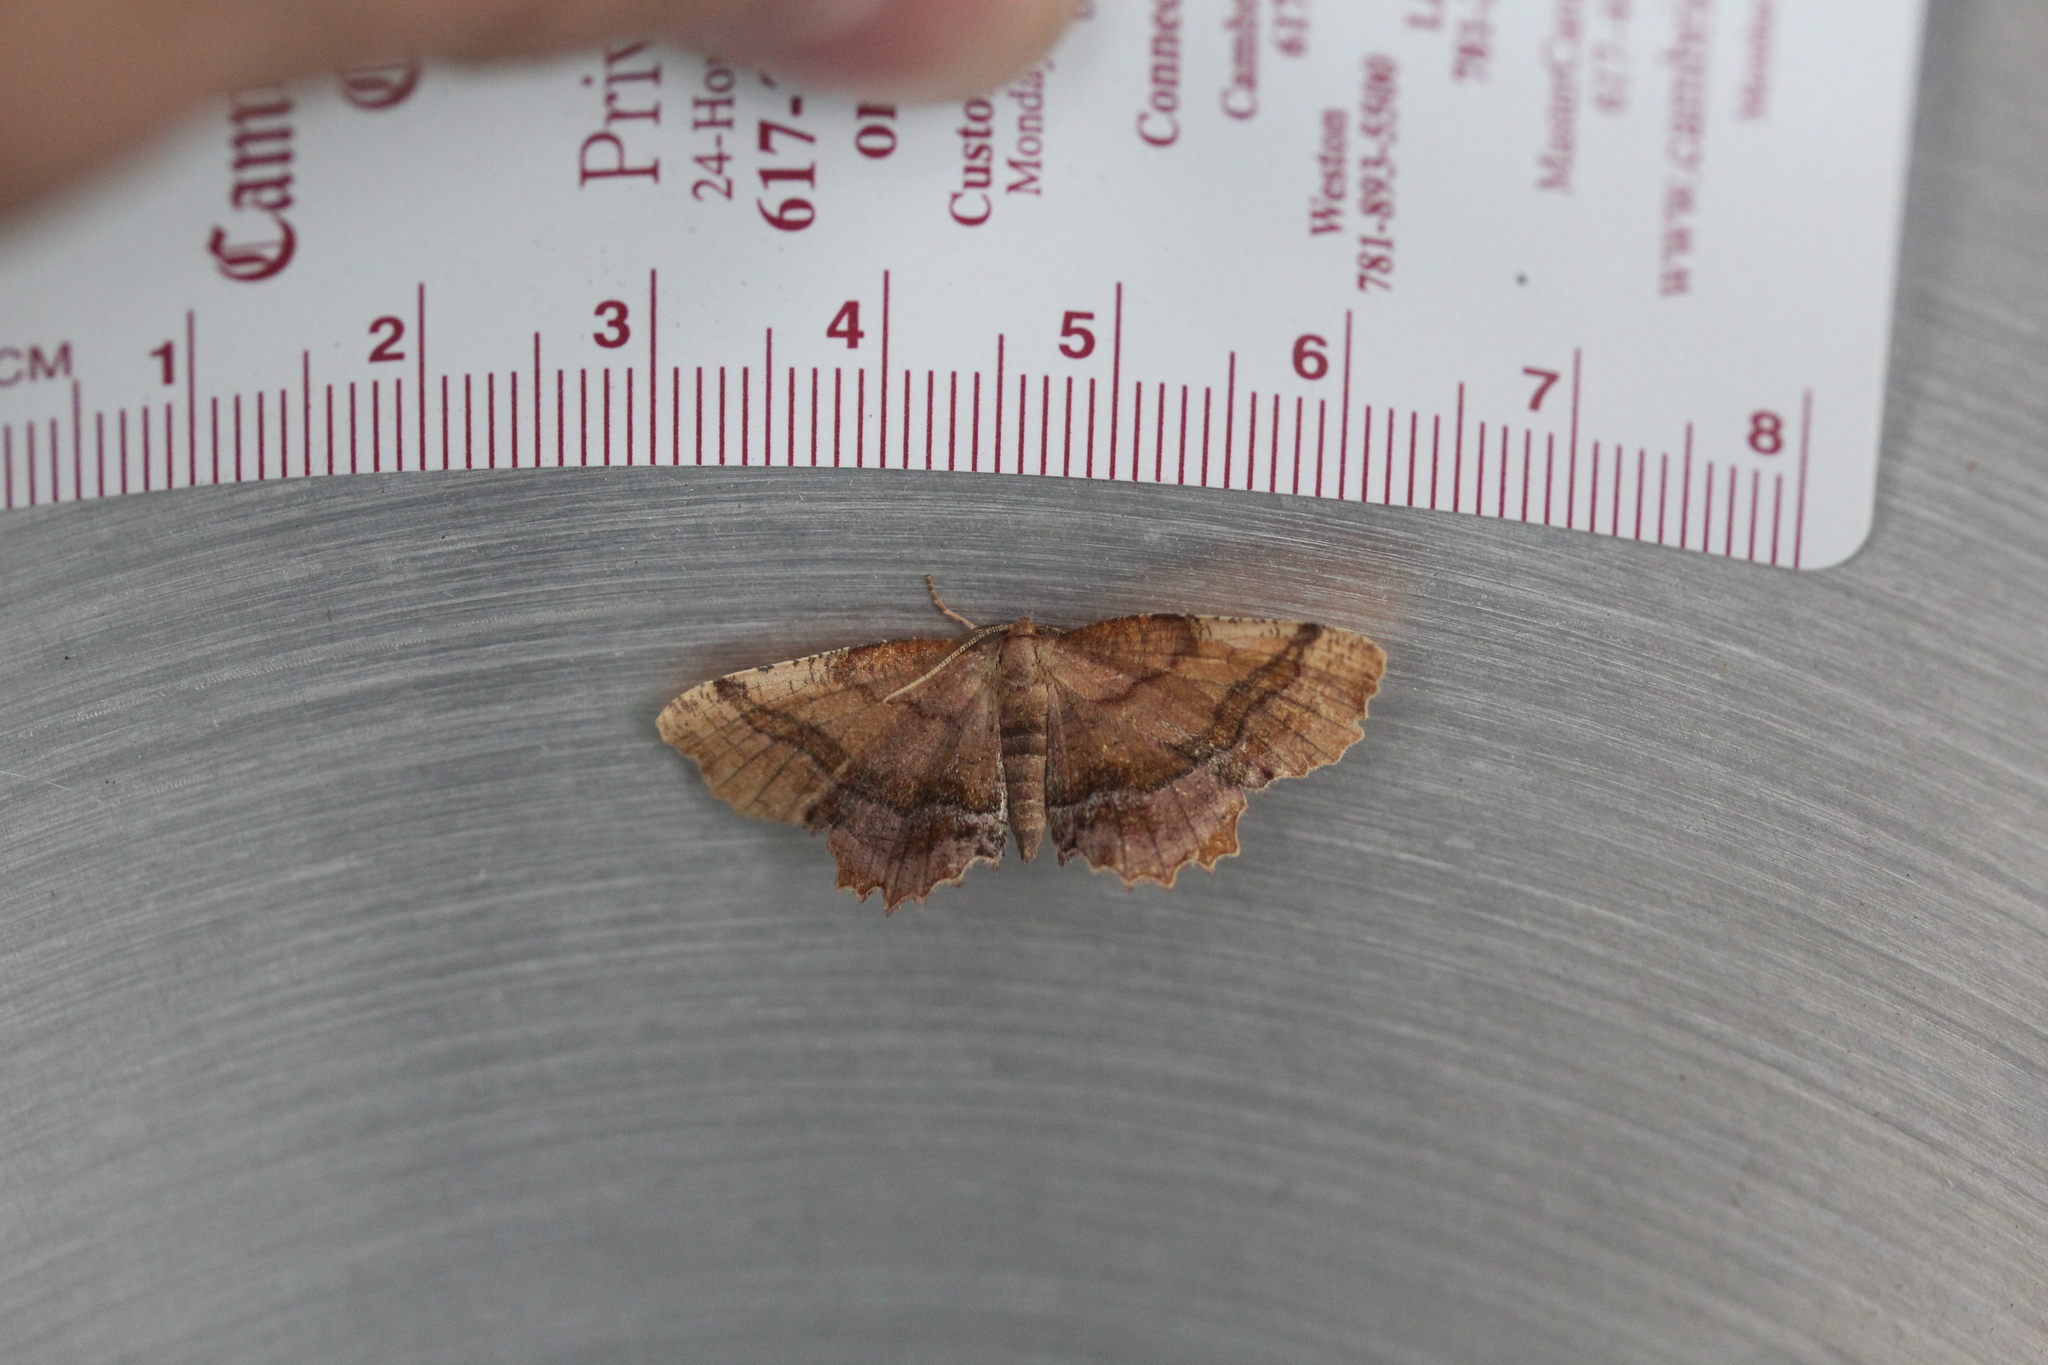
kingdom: Animalia
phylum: Arthropoda
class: Insecta
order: Lepidoptera
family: Geometridae
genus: Cepphis
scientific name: Cepphis armataria
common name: Scallop moth
